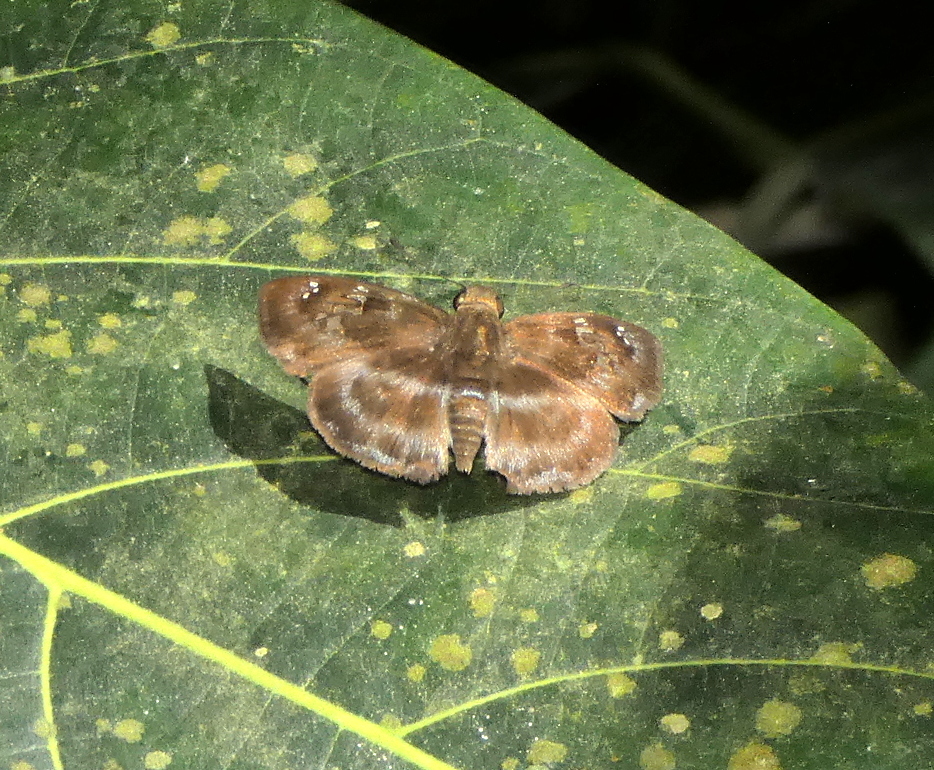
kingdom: Animalia
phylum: Arthropoda
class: Insecta
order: Lepidoptera
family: Hesperiidae
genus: Quadrus
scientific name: Quadrus cerialis
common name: Common blue-skipper
